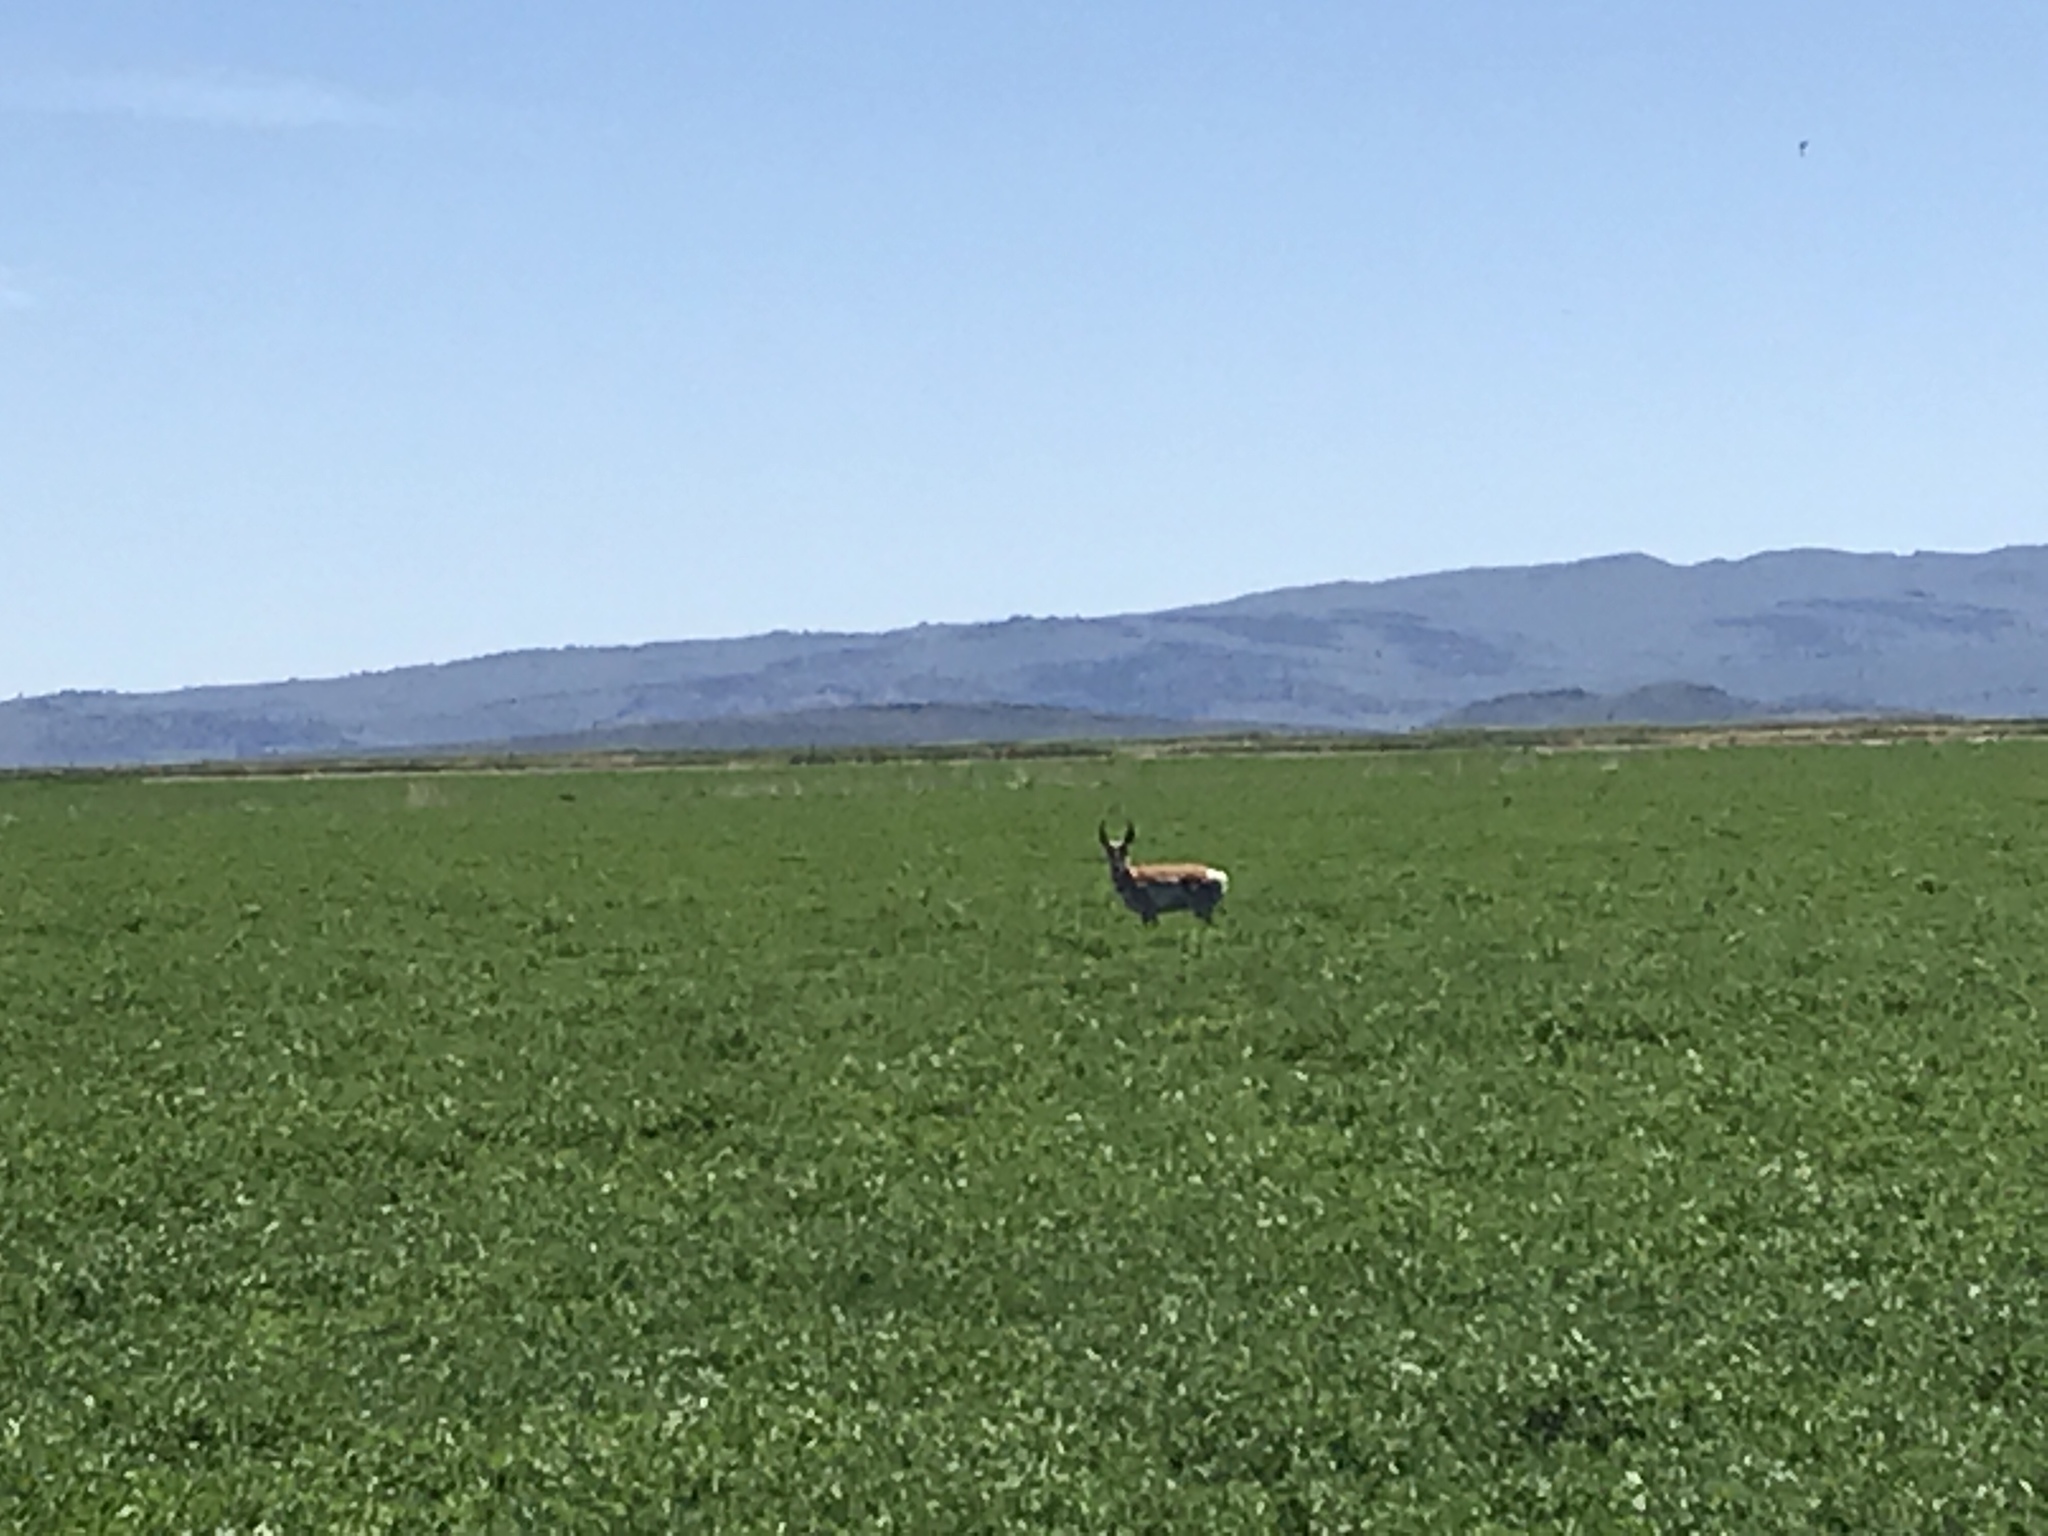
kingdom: Animalia
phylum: Chordata
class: Mammalia
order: Artiodactyla
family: Antilocapridae
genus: Antilocapra
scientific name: Antilocapra americana
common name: Pronghorn
